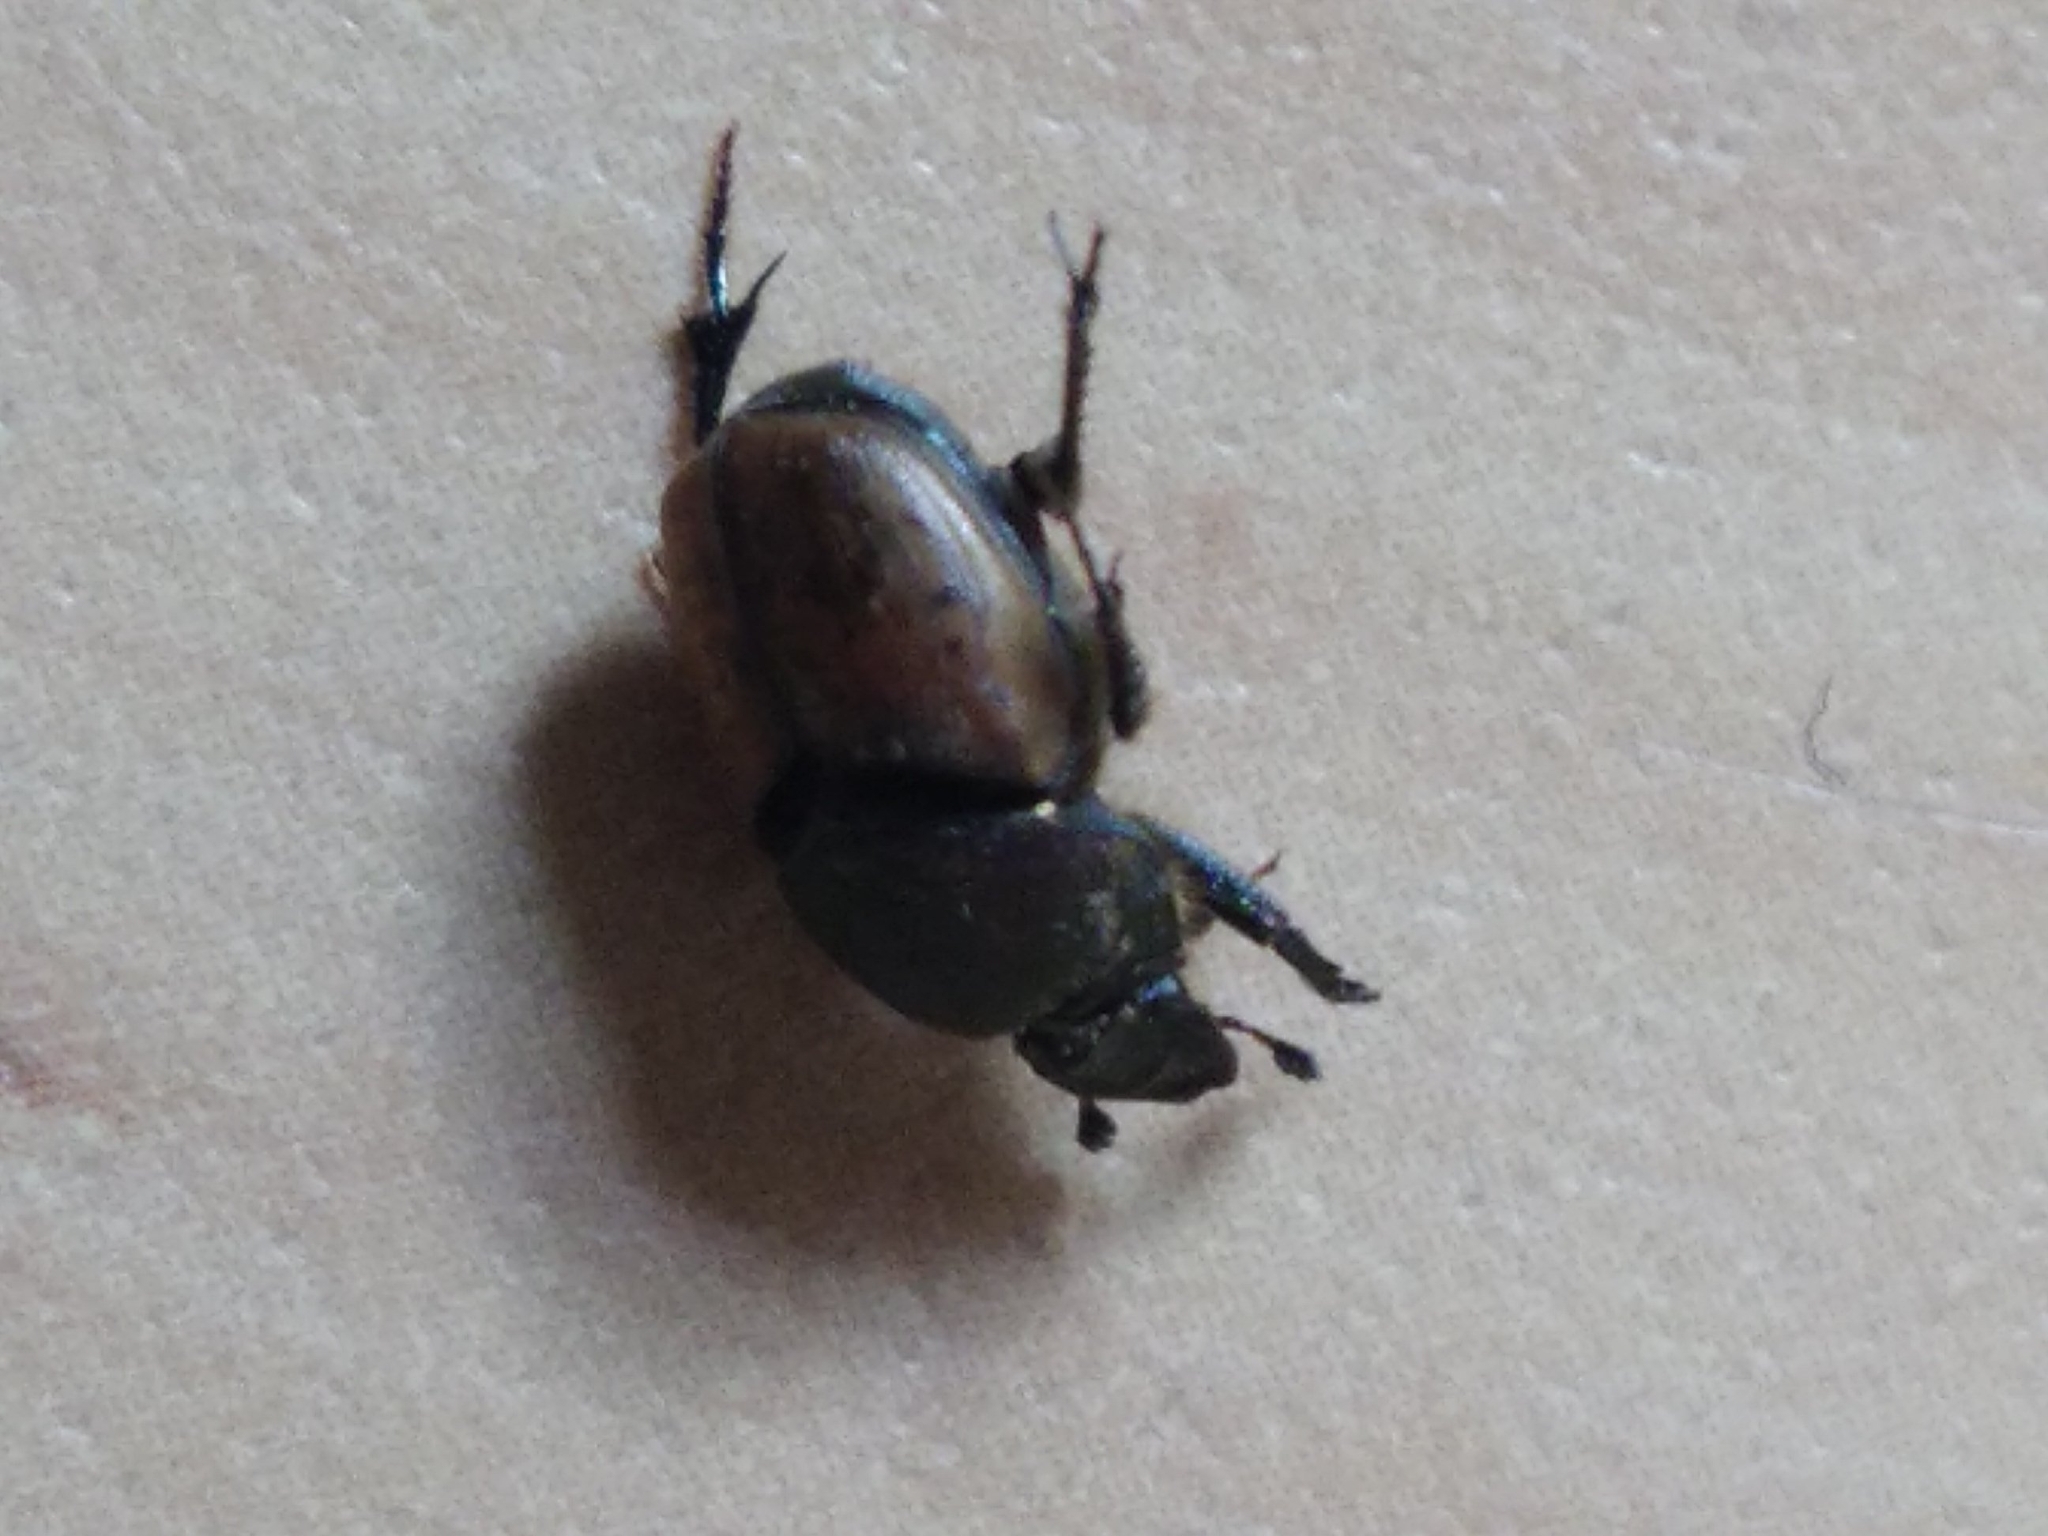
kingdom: Animalia
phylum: Arthropoda
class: Insecta
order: Coleoptera
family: Scarabaeidae
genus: Onthophagus
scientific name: Onthophagus coenobita
